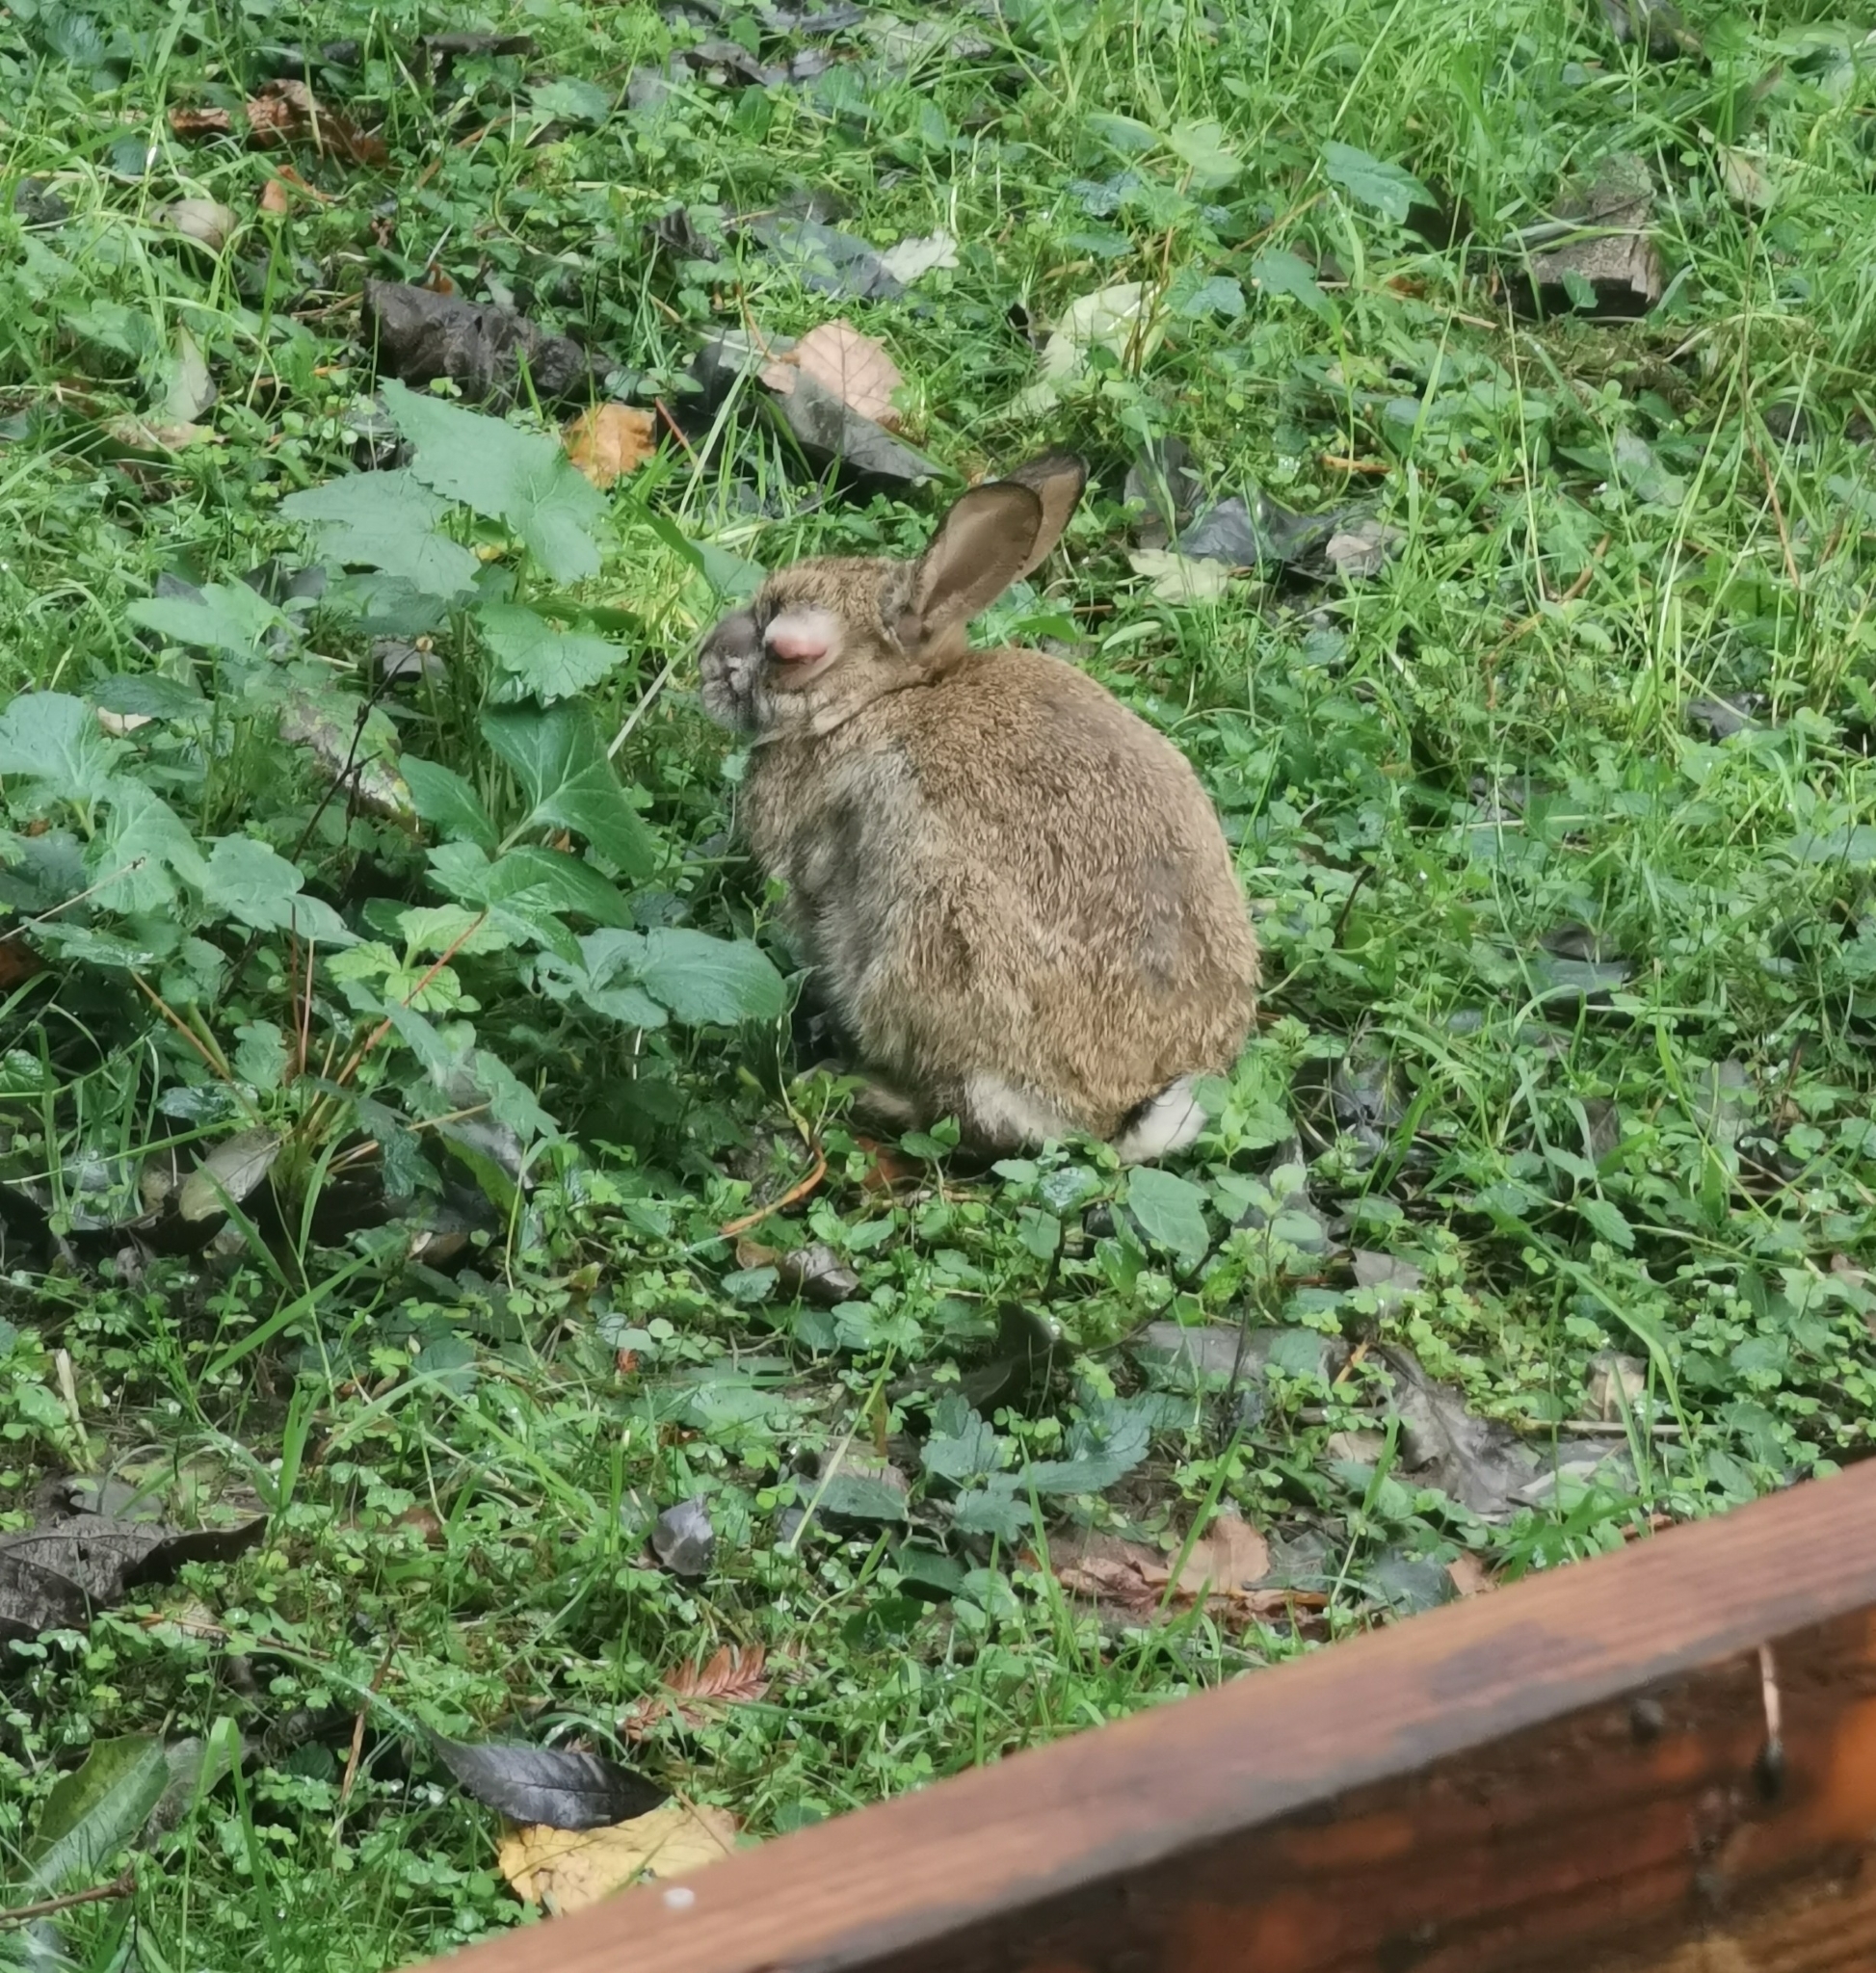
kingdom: Animalia
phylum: Chordata
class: Mammalia
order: Lagomorpha
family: Leporidae
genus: Oryctolagus
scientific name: Oryctolagus cuniculus
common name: European rabbit
